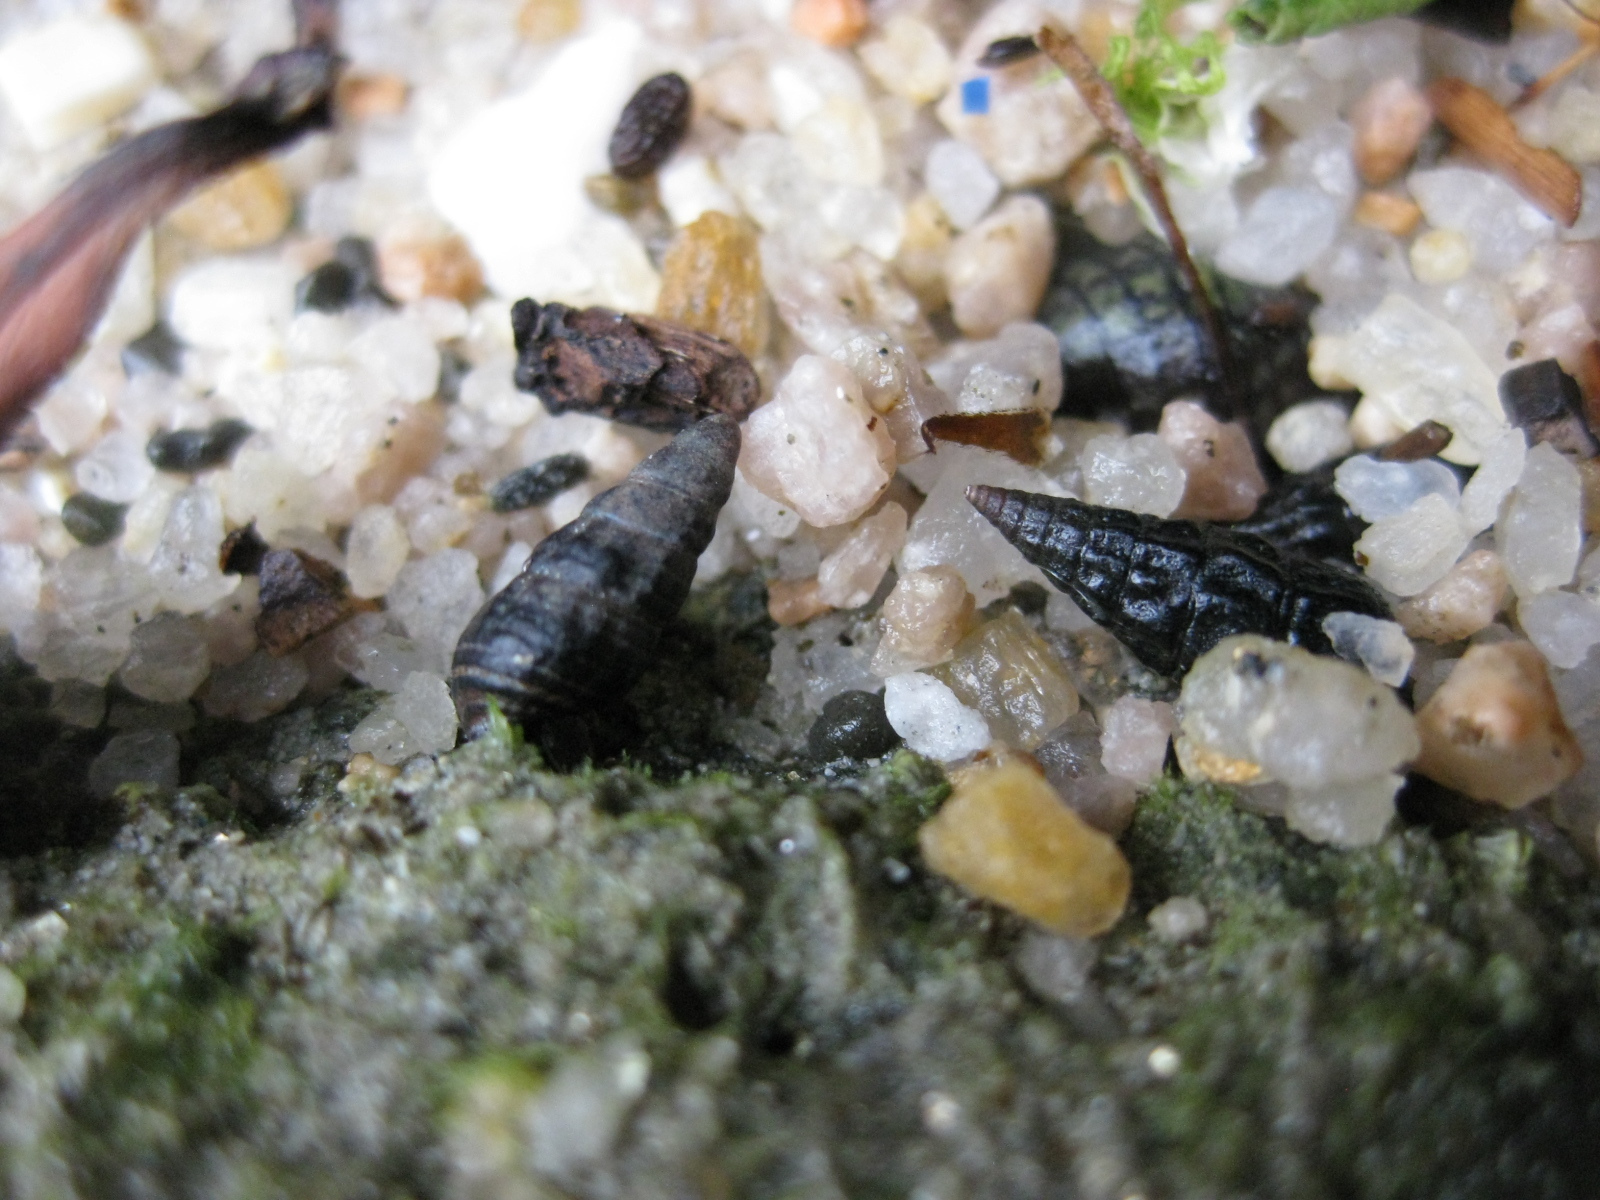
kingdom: Animalia
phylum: Mollusca
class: Gastropoda
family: Batillariidae
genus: Zeacumantus
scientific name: Zeacumantus subcarinatus
